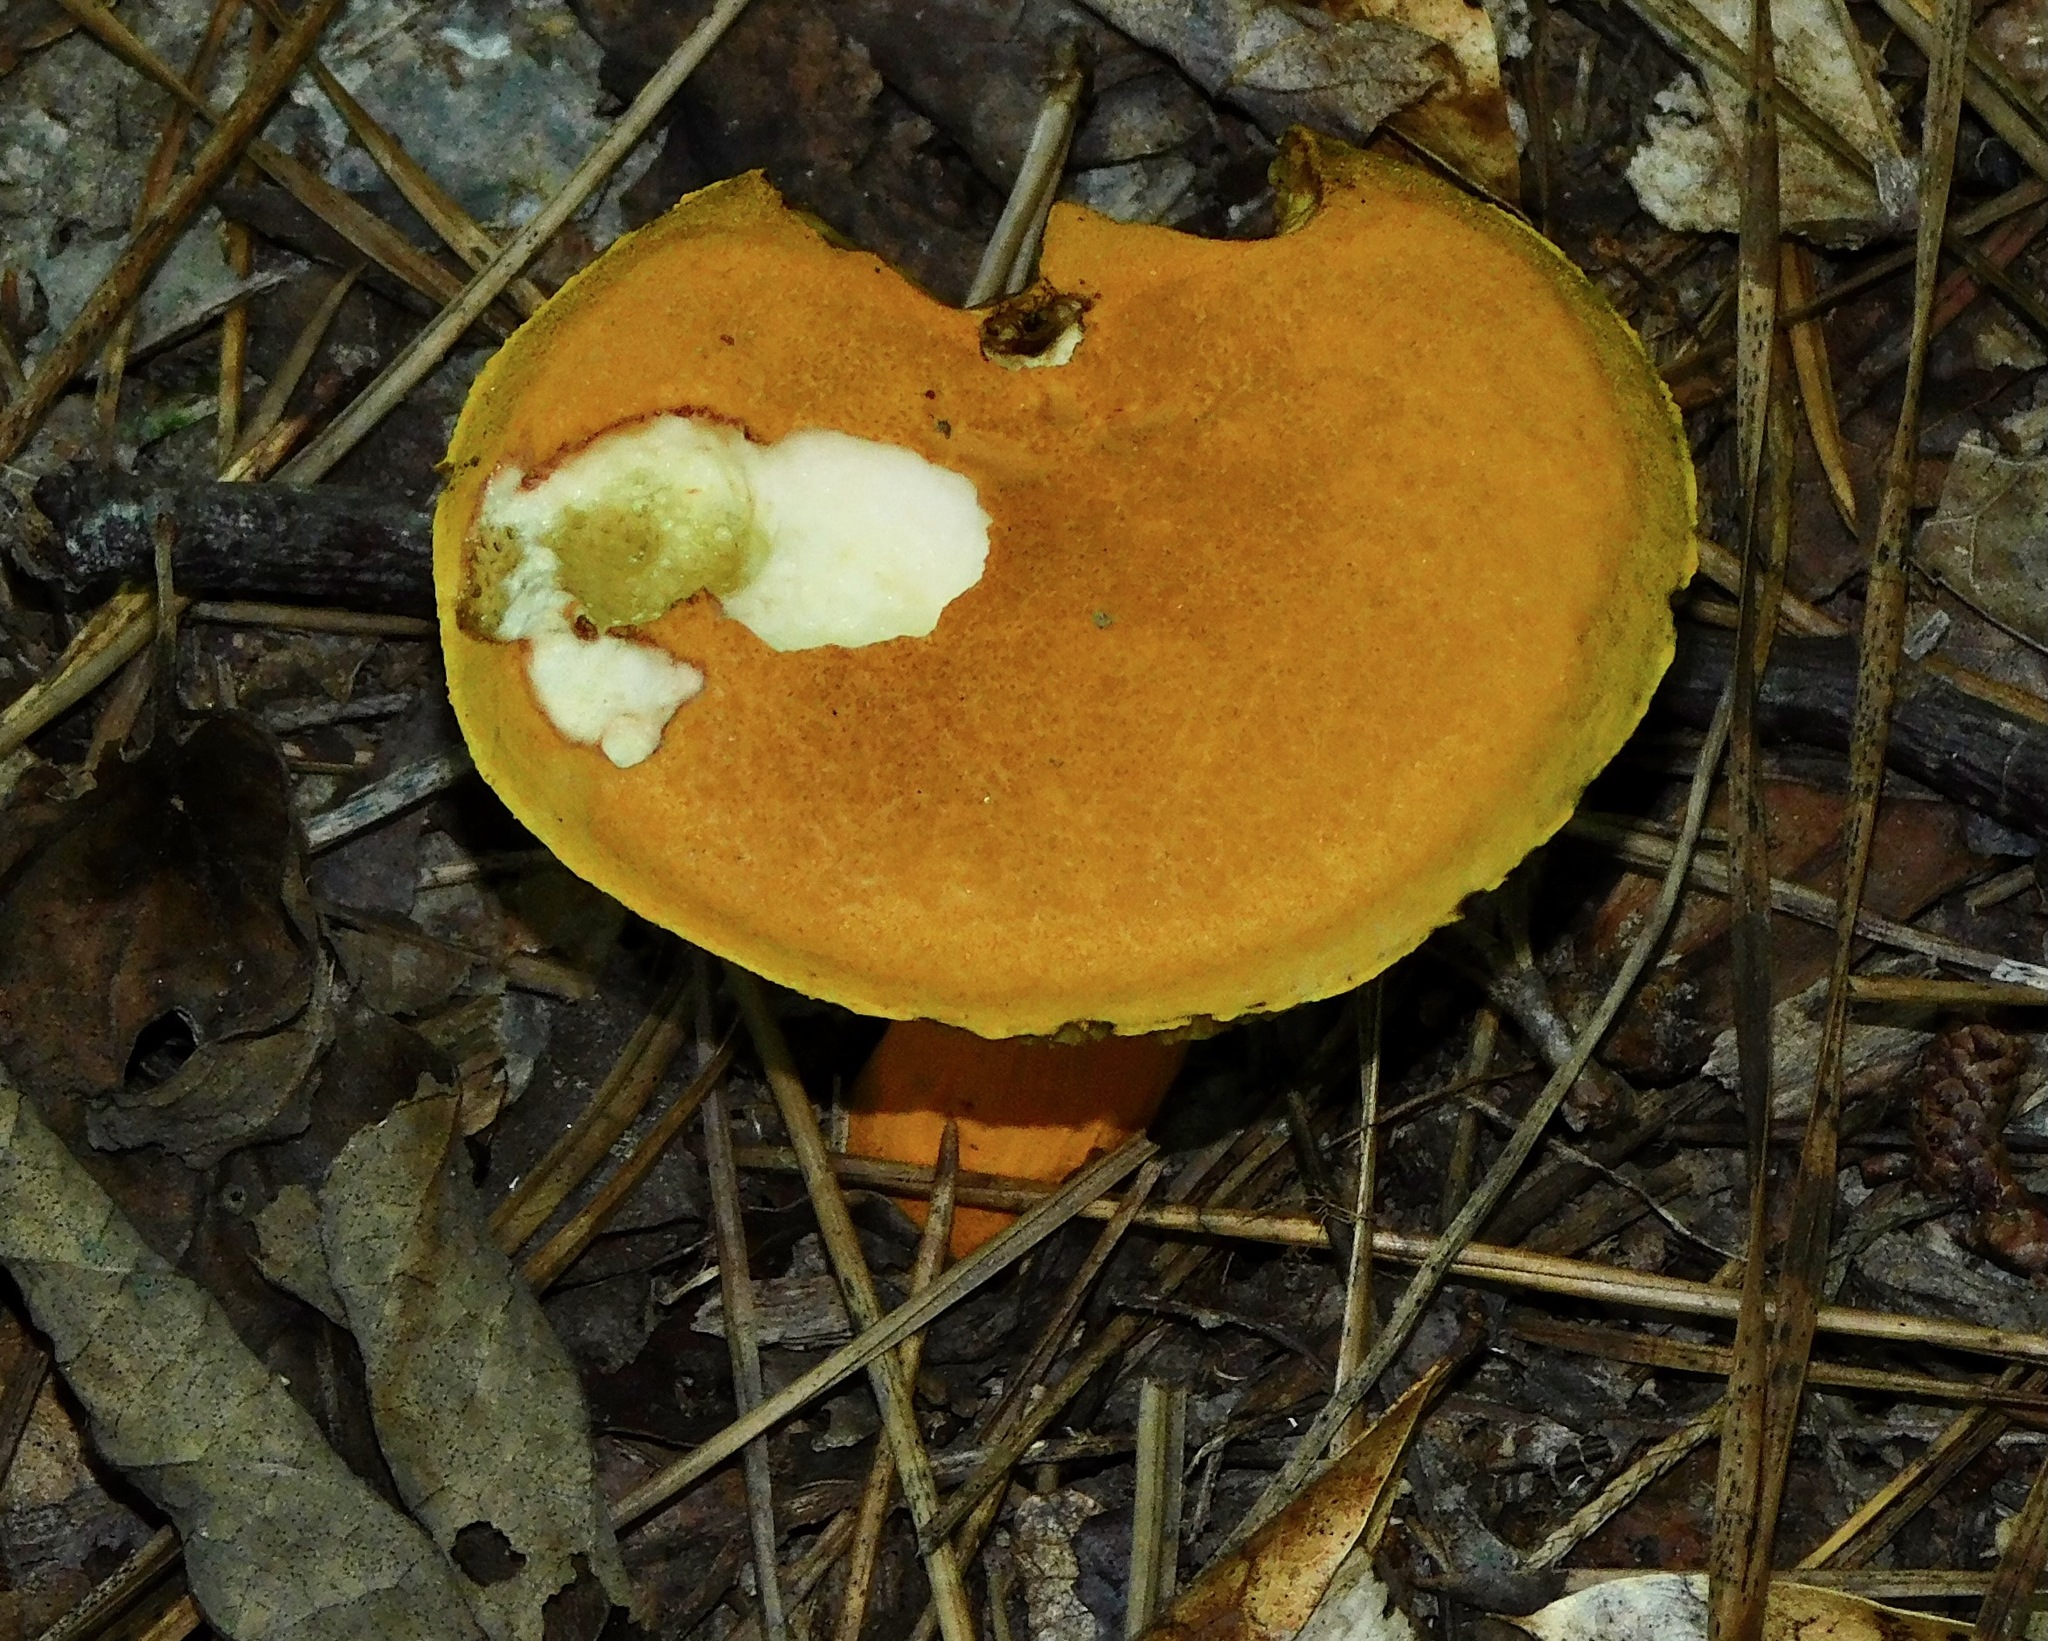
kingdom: Fungi
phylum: Basidiomycota
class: Agaricomycetes
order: Boletales
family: Boletaceae
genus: Aureoboletus
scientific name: Aureoboletus auriflammeus
